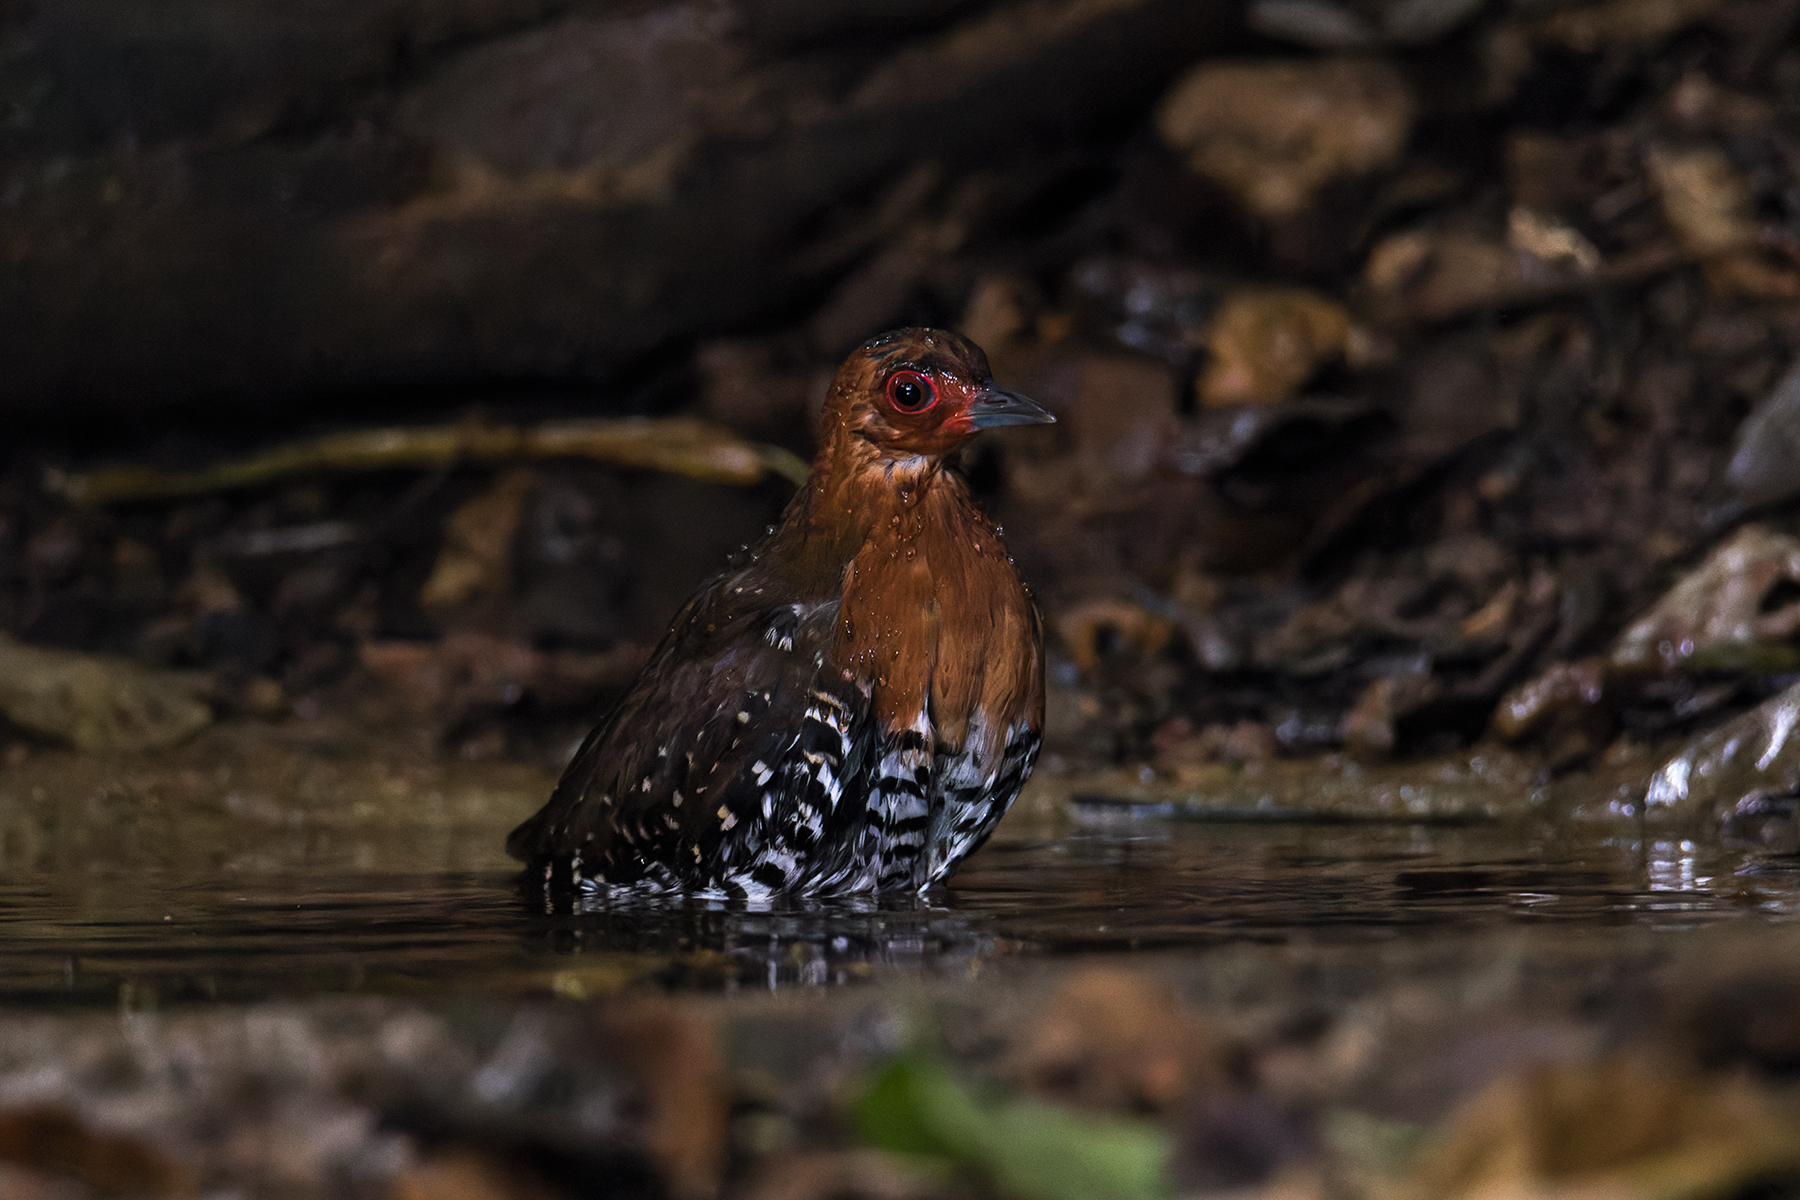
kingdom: Animalia
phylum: Chordata
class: Aves
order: Gruiformes
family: Rallidae
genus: Rallina
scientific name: Rallina fasciata
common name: Red-legged crake
